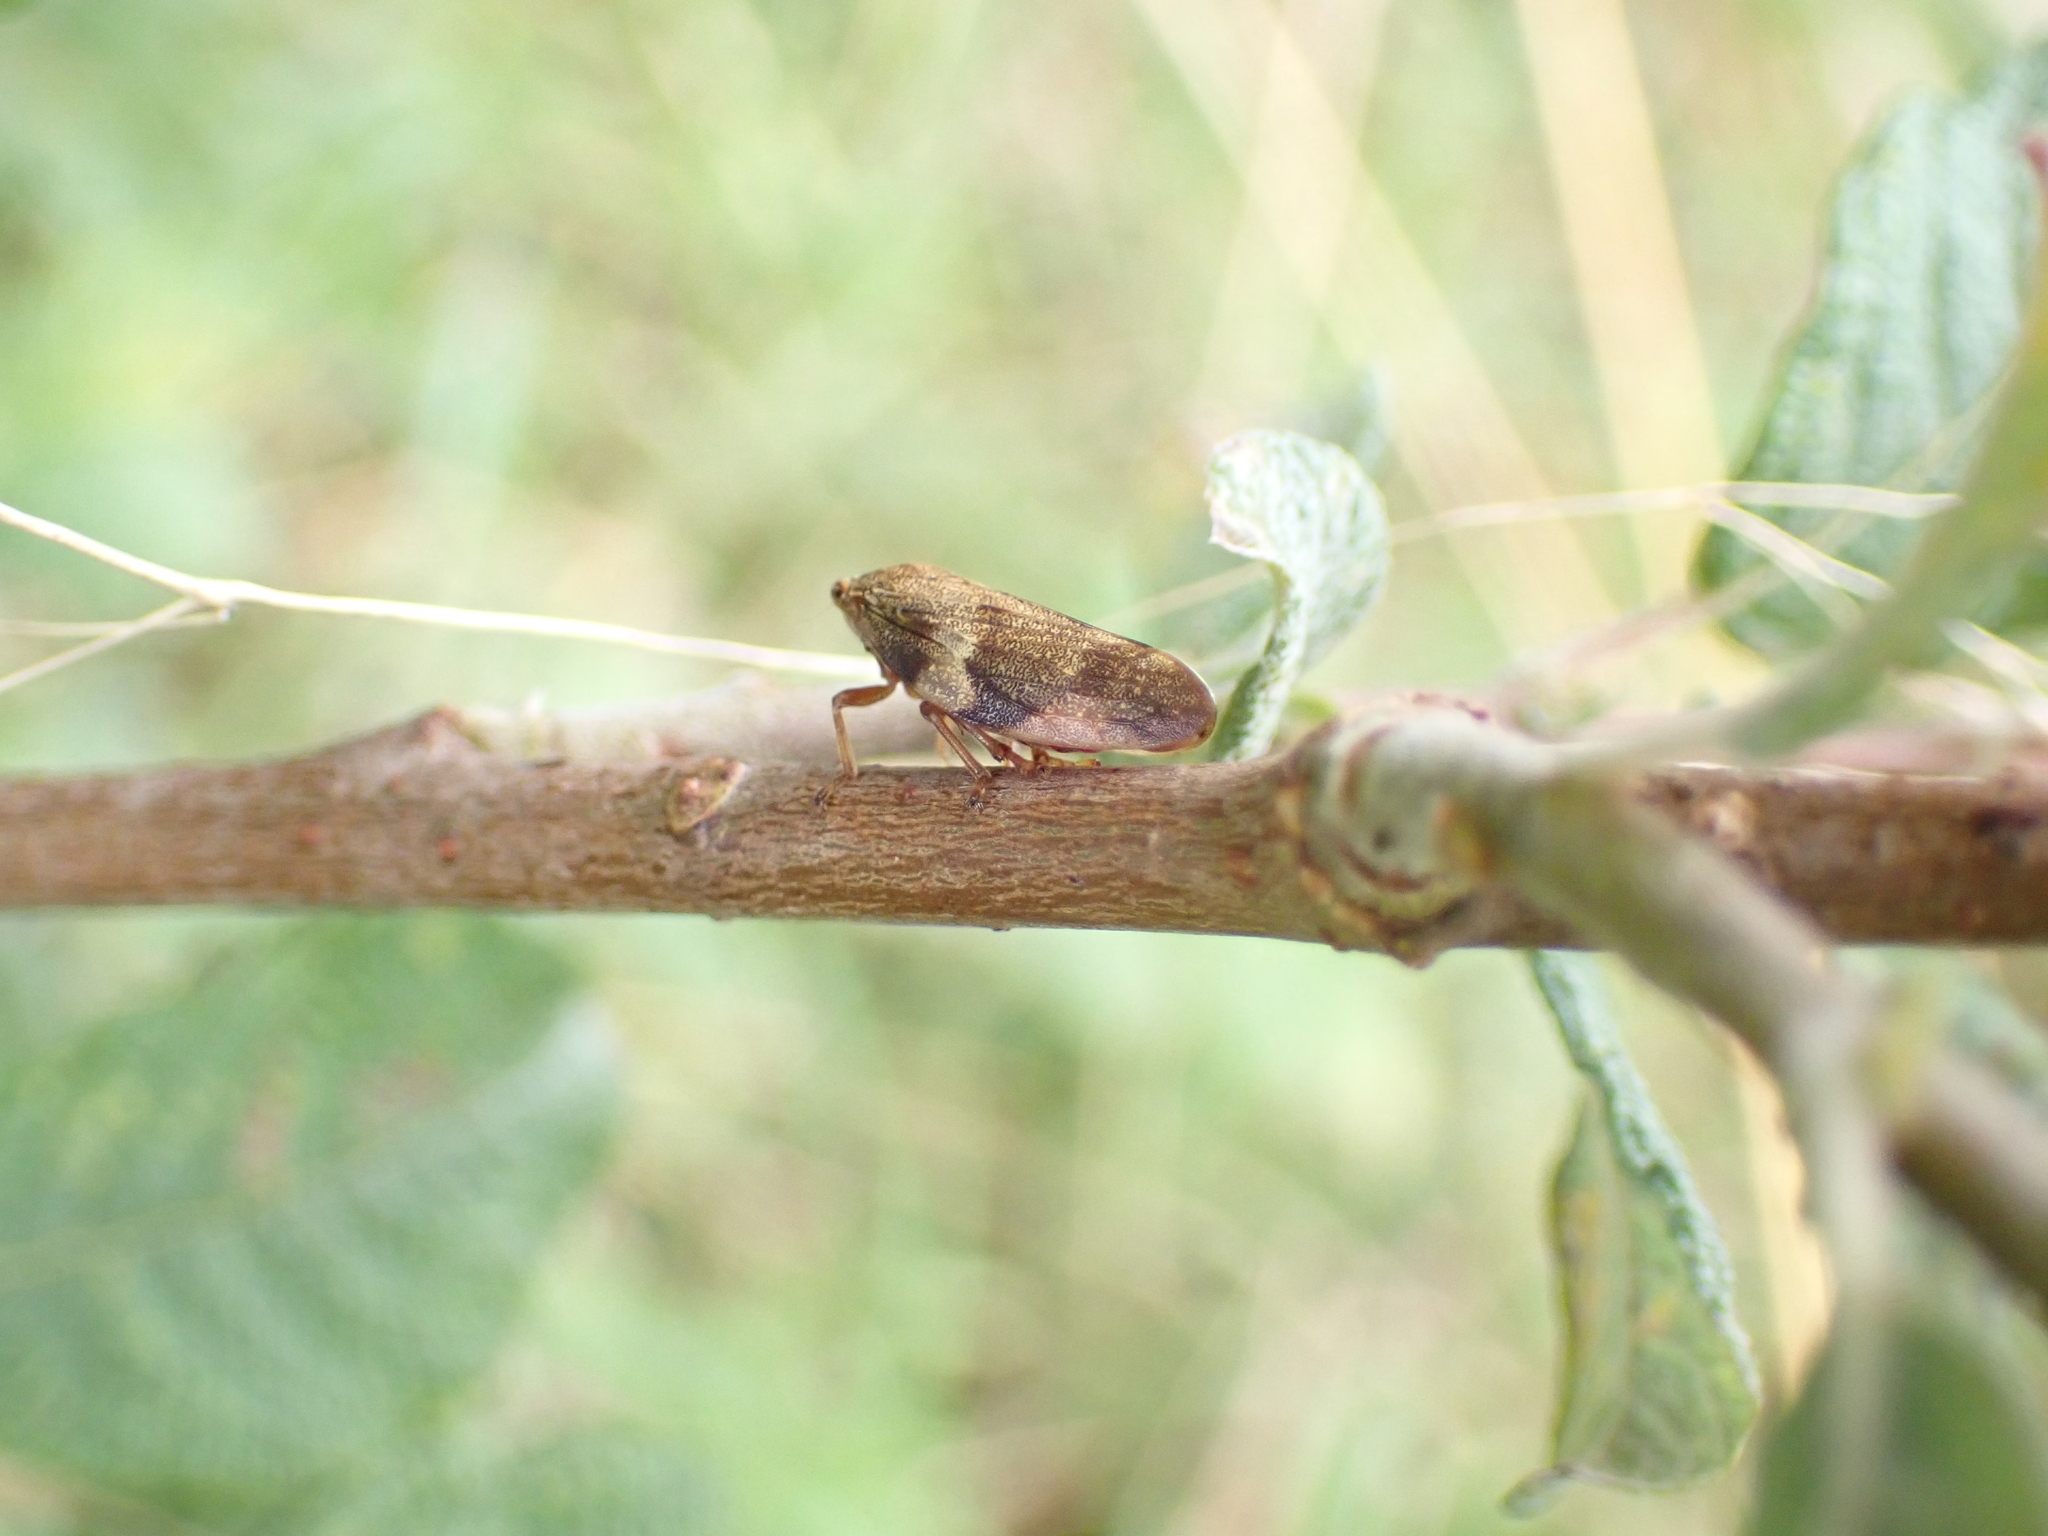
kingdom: Animalia
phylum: Arthropoda
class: Insecta
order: Hemiptera
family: Aphrophoridae
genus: Aphrophora
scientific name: Aphrophora alni
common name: European alder spittlebug
